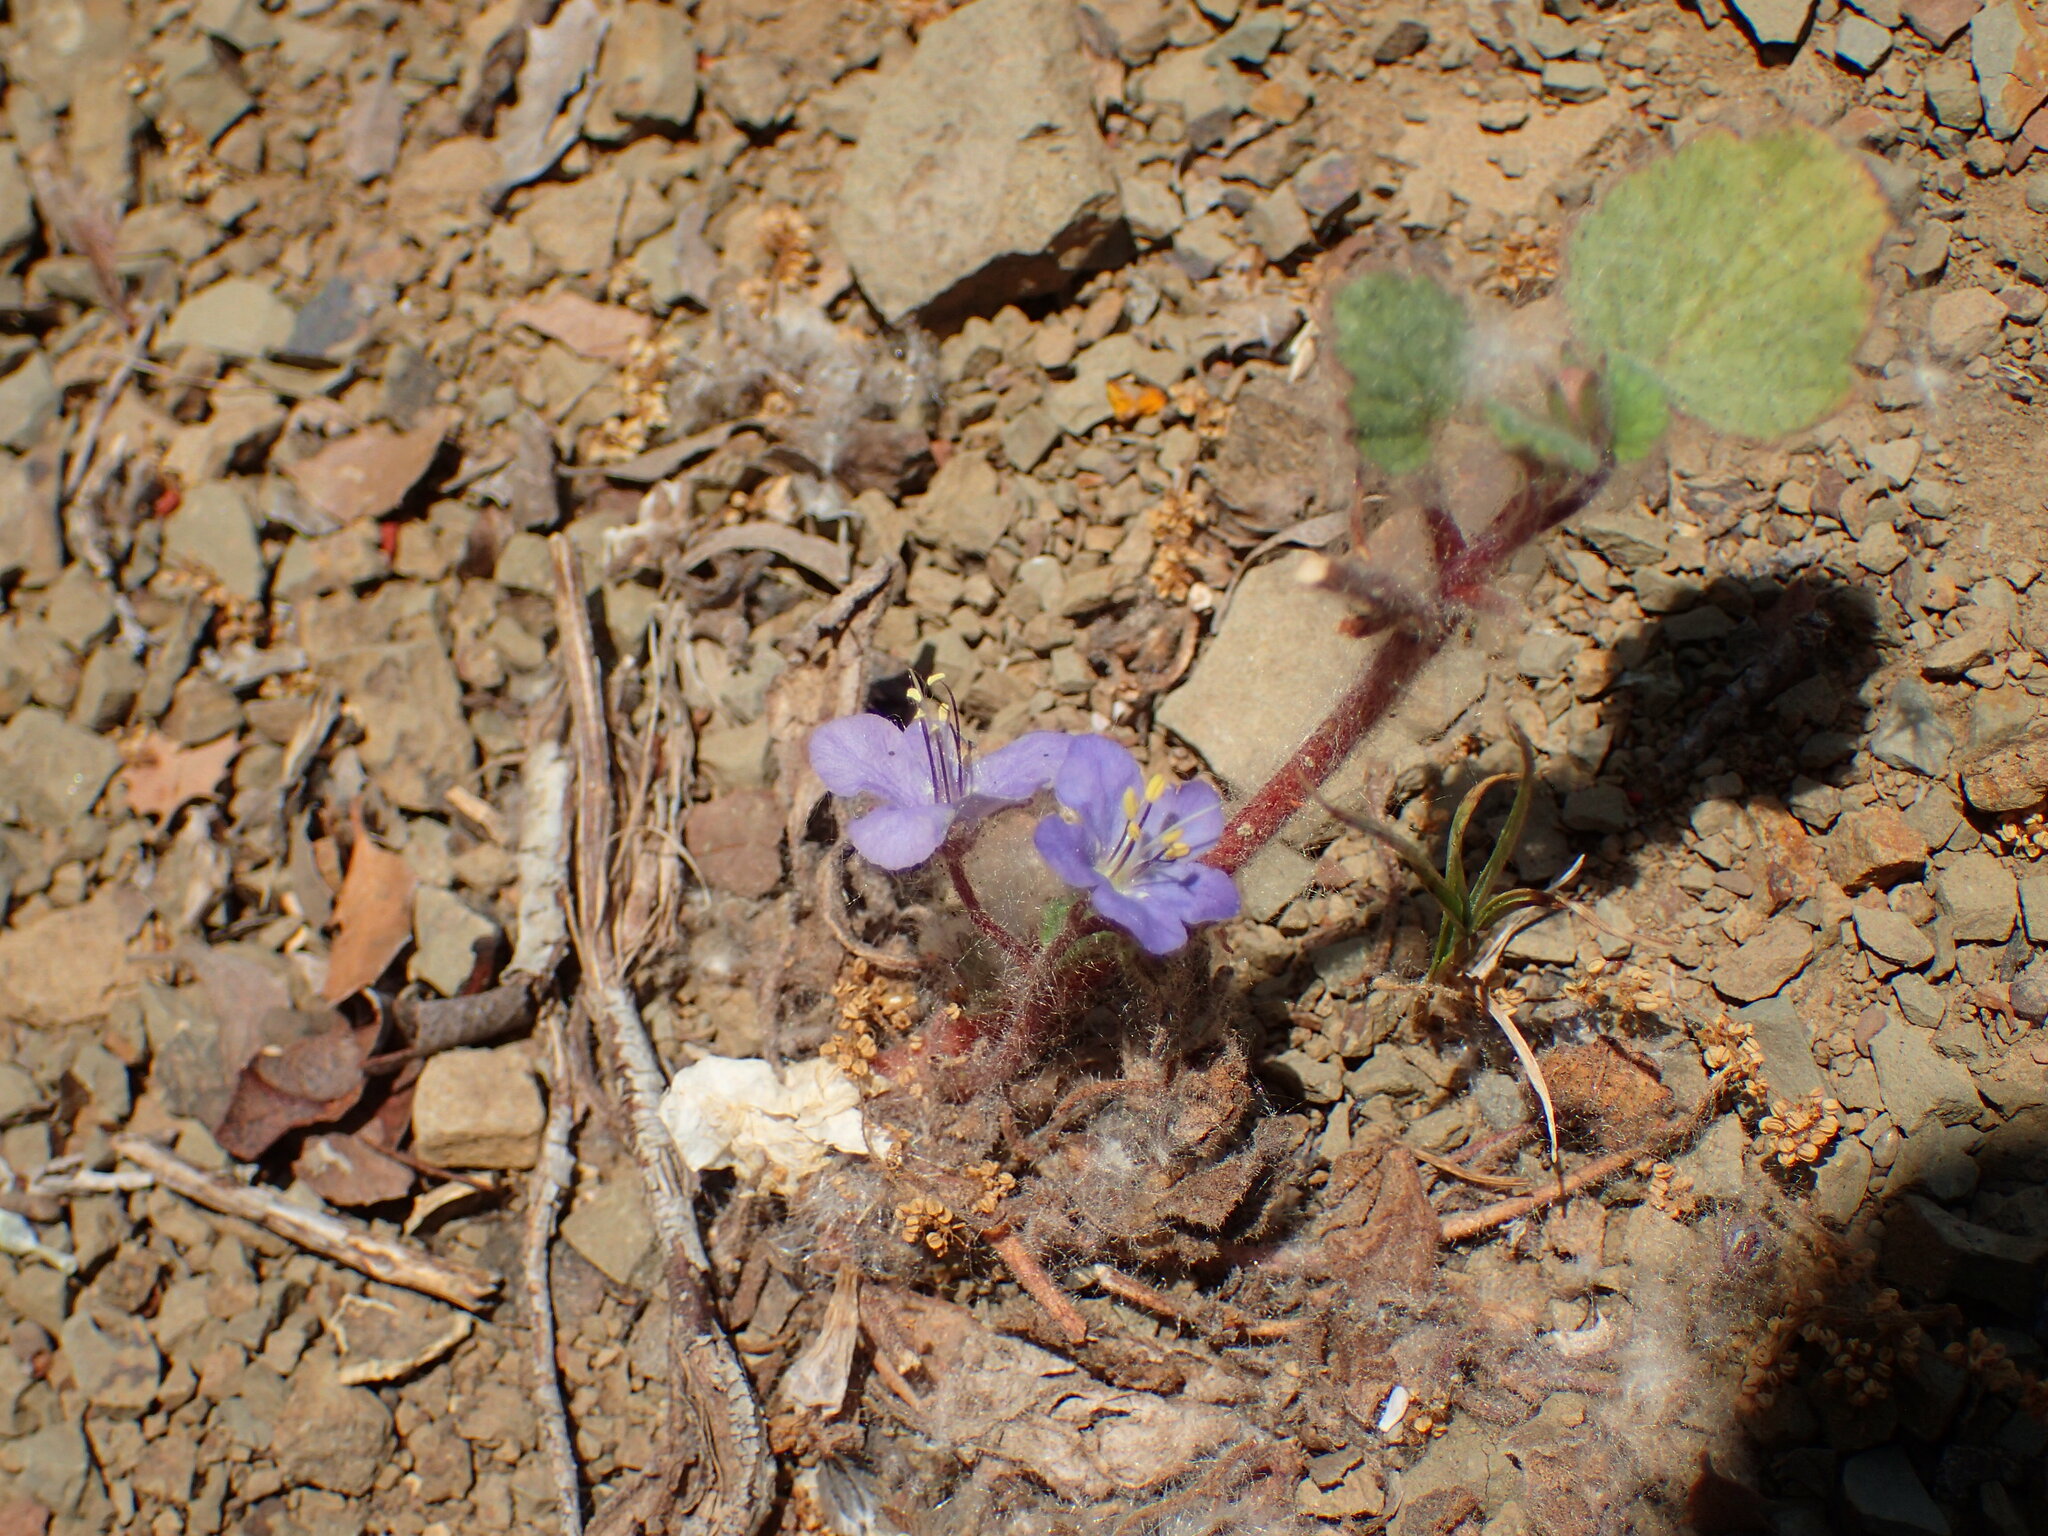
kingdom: Plantae
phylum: Tracheophyta
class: Magnoliopsida
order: Boraginales
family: Hydrophyllaceae
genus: Phacelia
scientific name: Phacelia longipes
